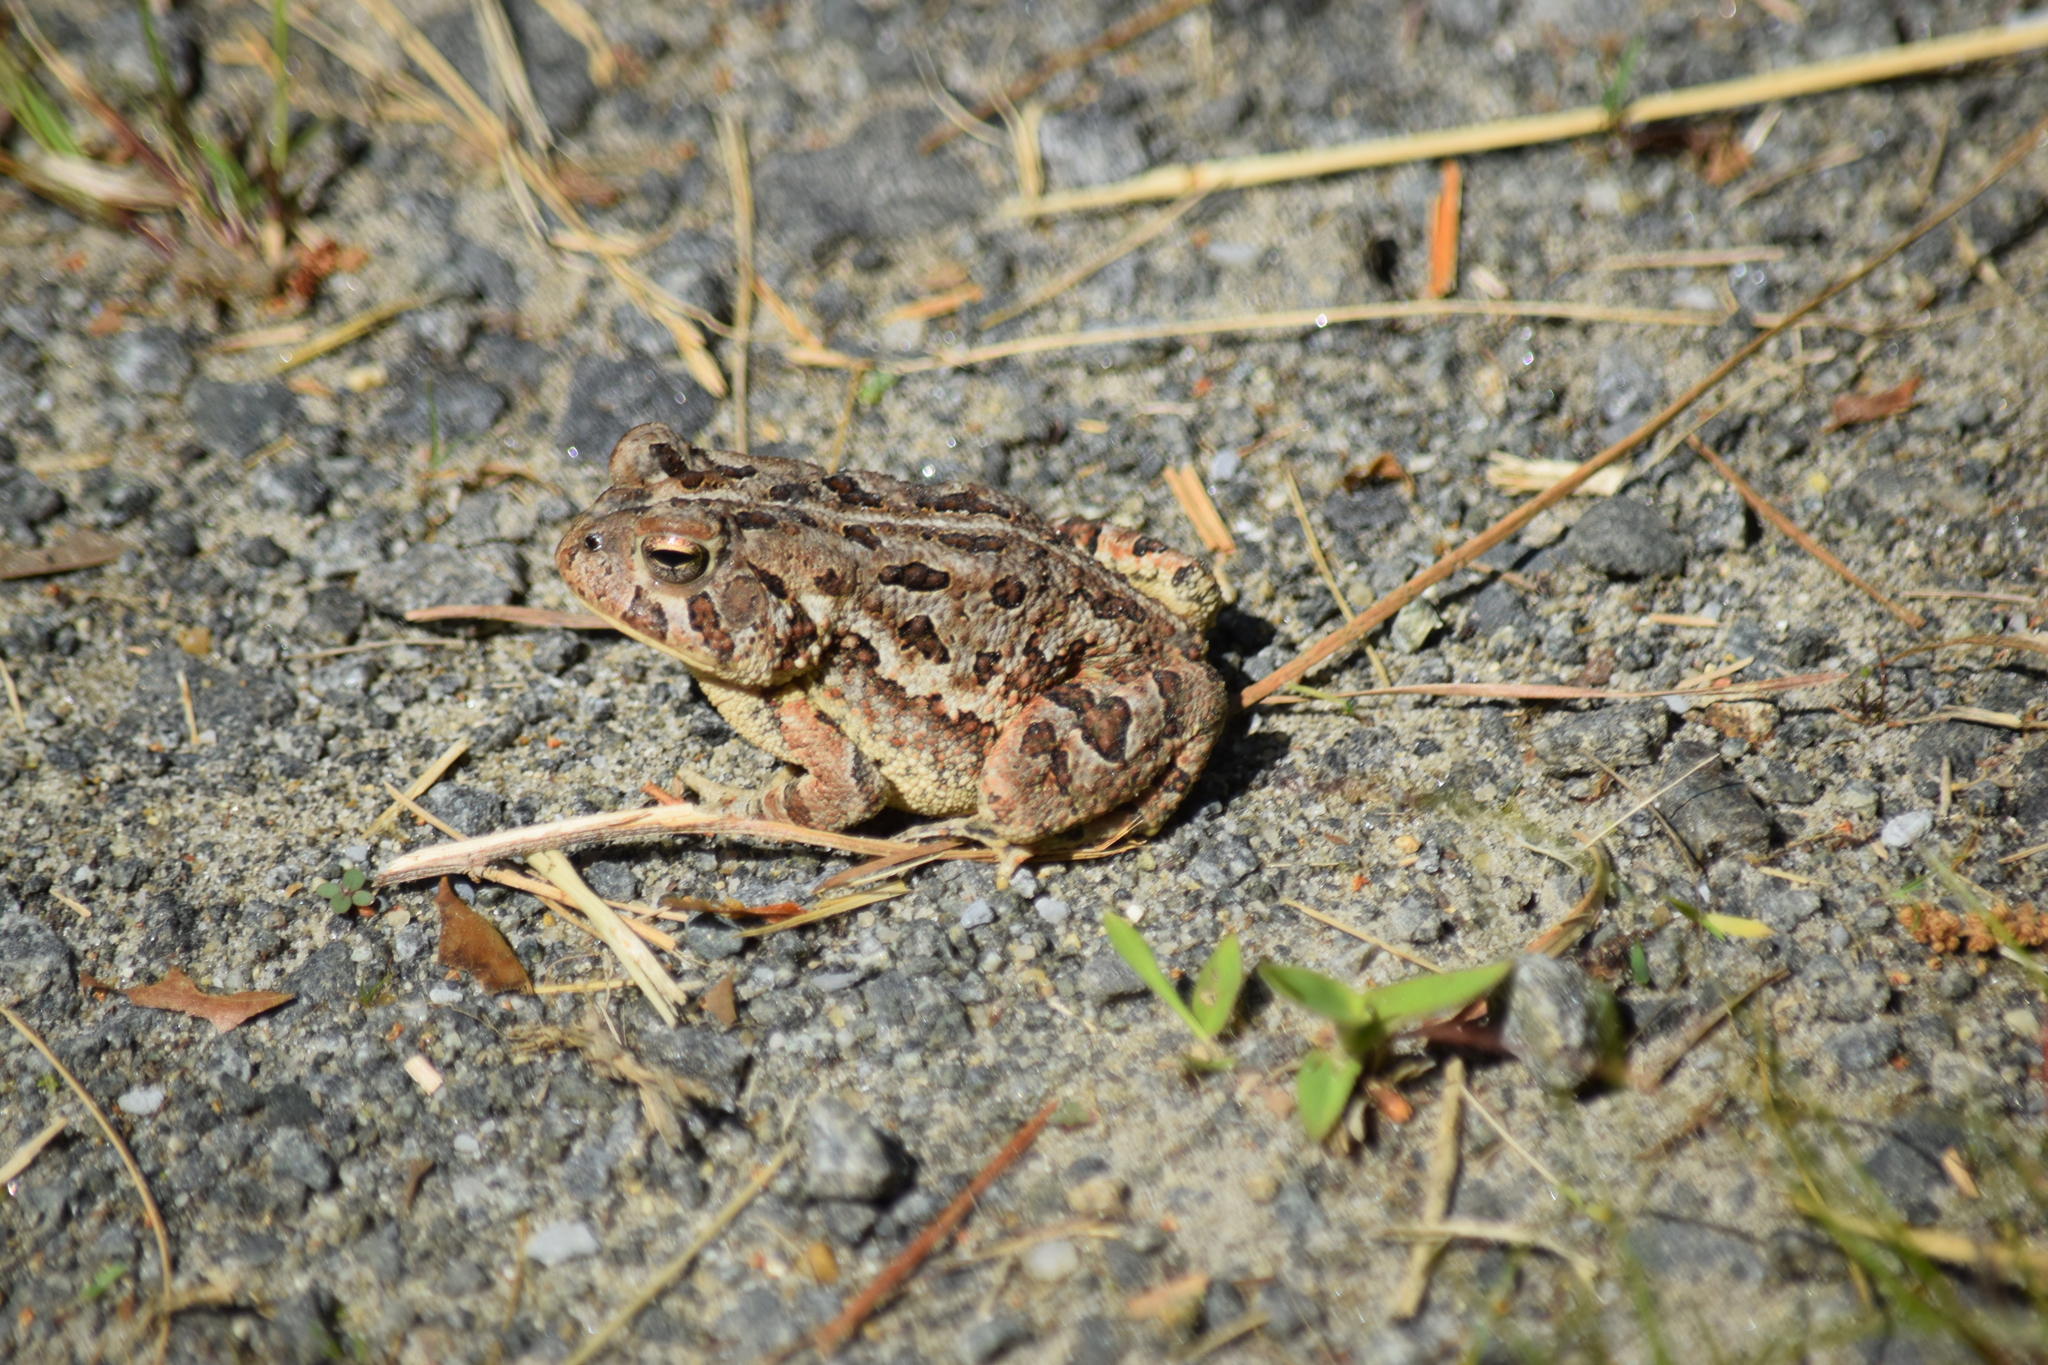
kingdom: Animalia
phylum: Chordata
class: Amphibia
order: Anura
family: Bufonidae
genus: Anaxyrus
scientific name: Anaxyrus fowleri
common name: Fowler's toad
